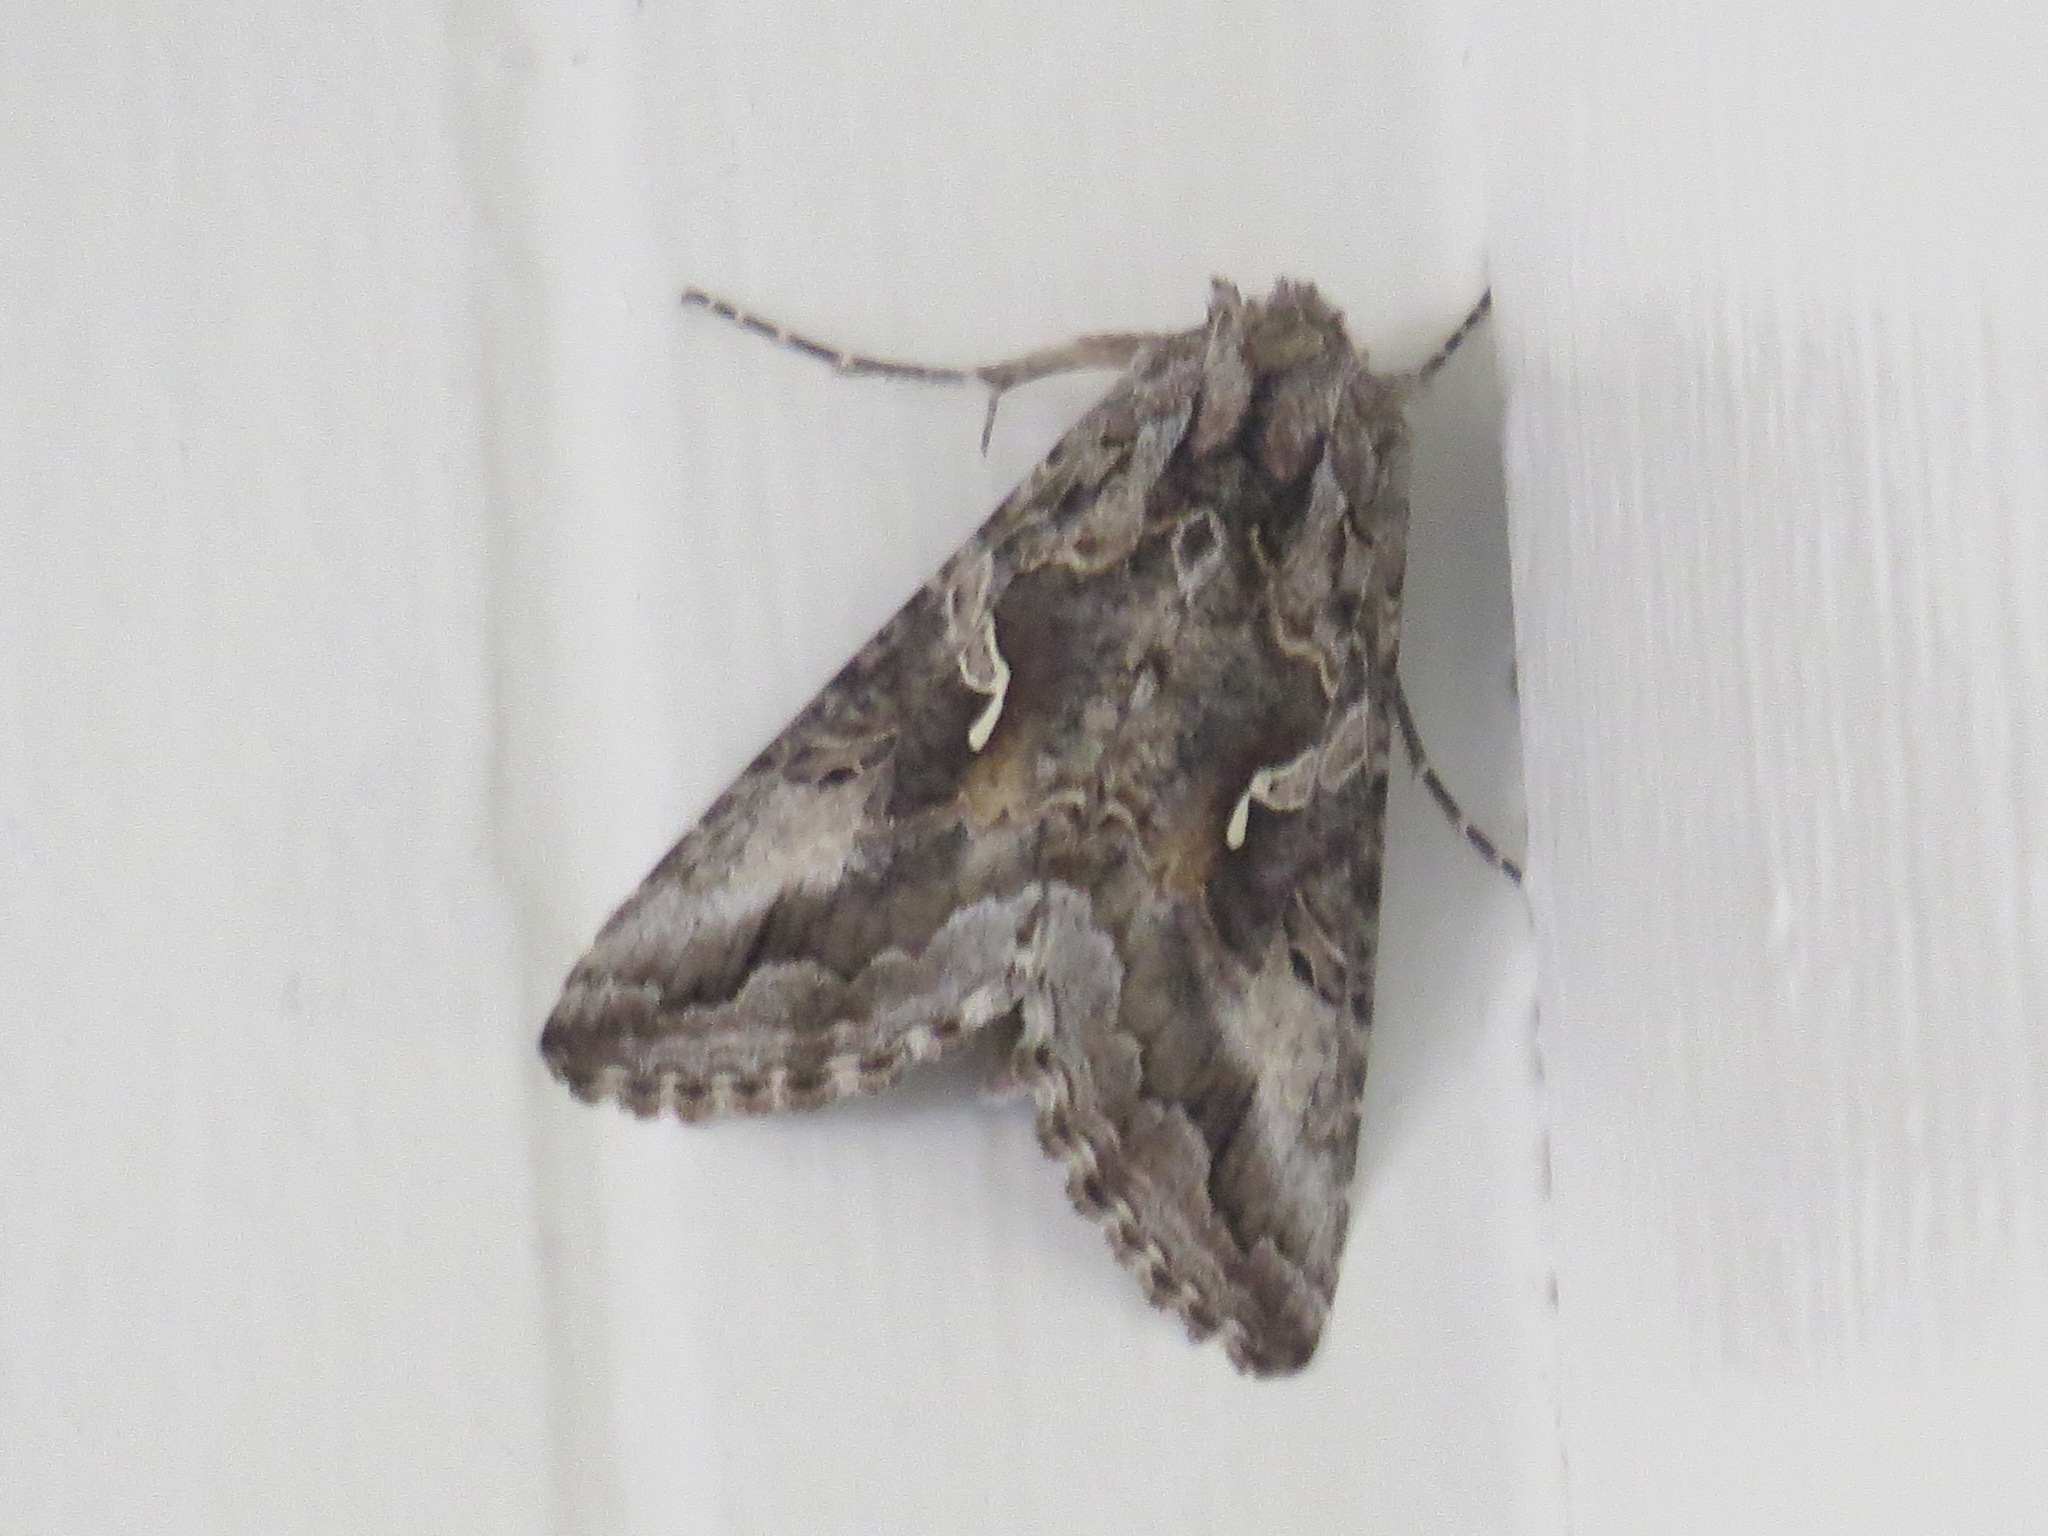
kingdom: Animalia
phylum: Arthropoda
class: Insecta
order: Lepidoptera
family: Noctuidae
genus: Autographa
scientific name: Autographa californica
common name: Alfalfa looper
